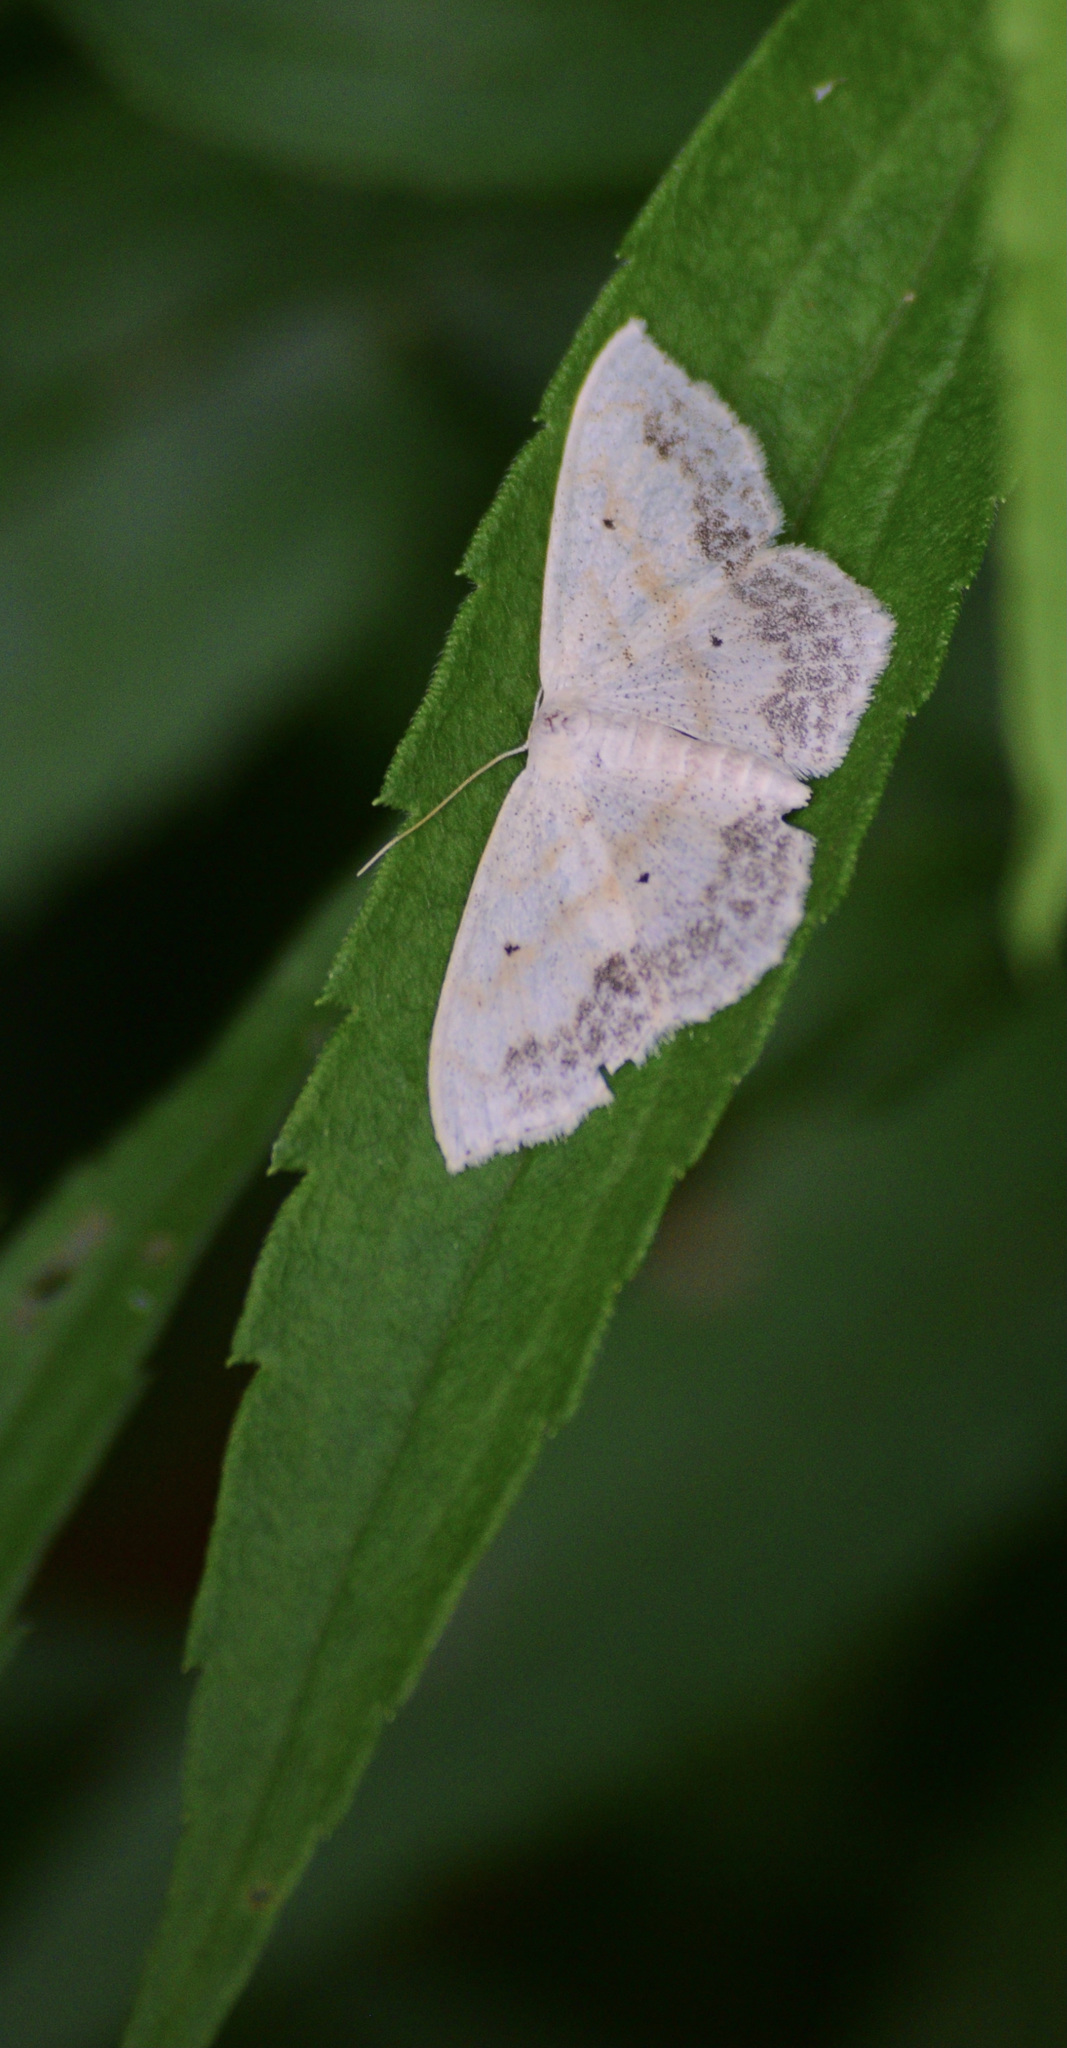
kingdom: Animalia
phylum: Arthropoda
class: Insecta
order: Lepidoptera
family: Geometridae
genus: Scopula
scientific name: Scopula limboundata
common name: Large lace border
